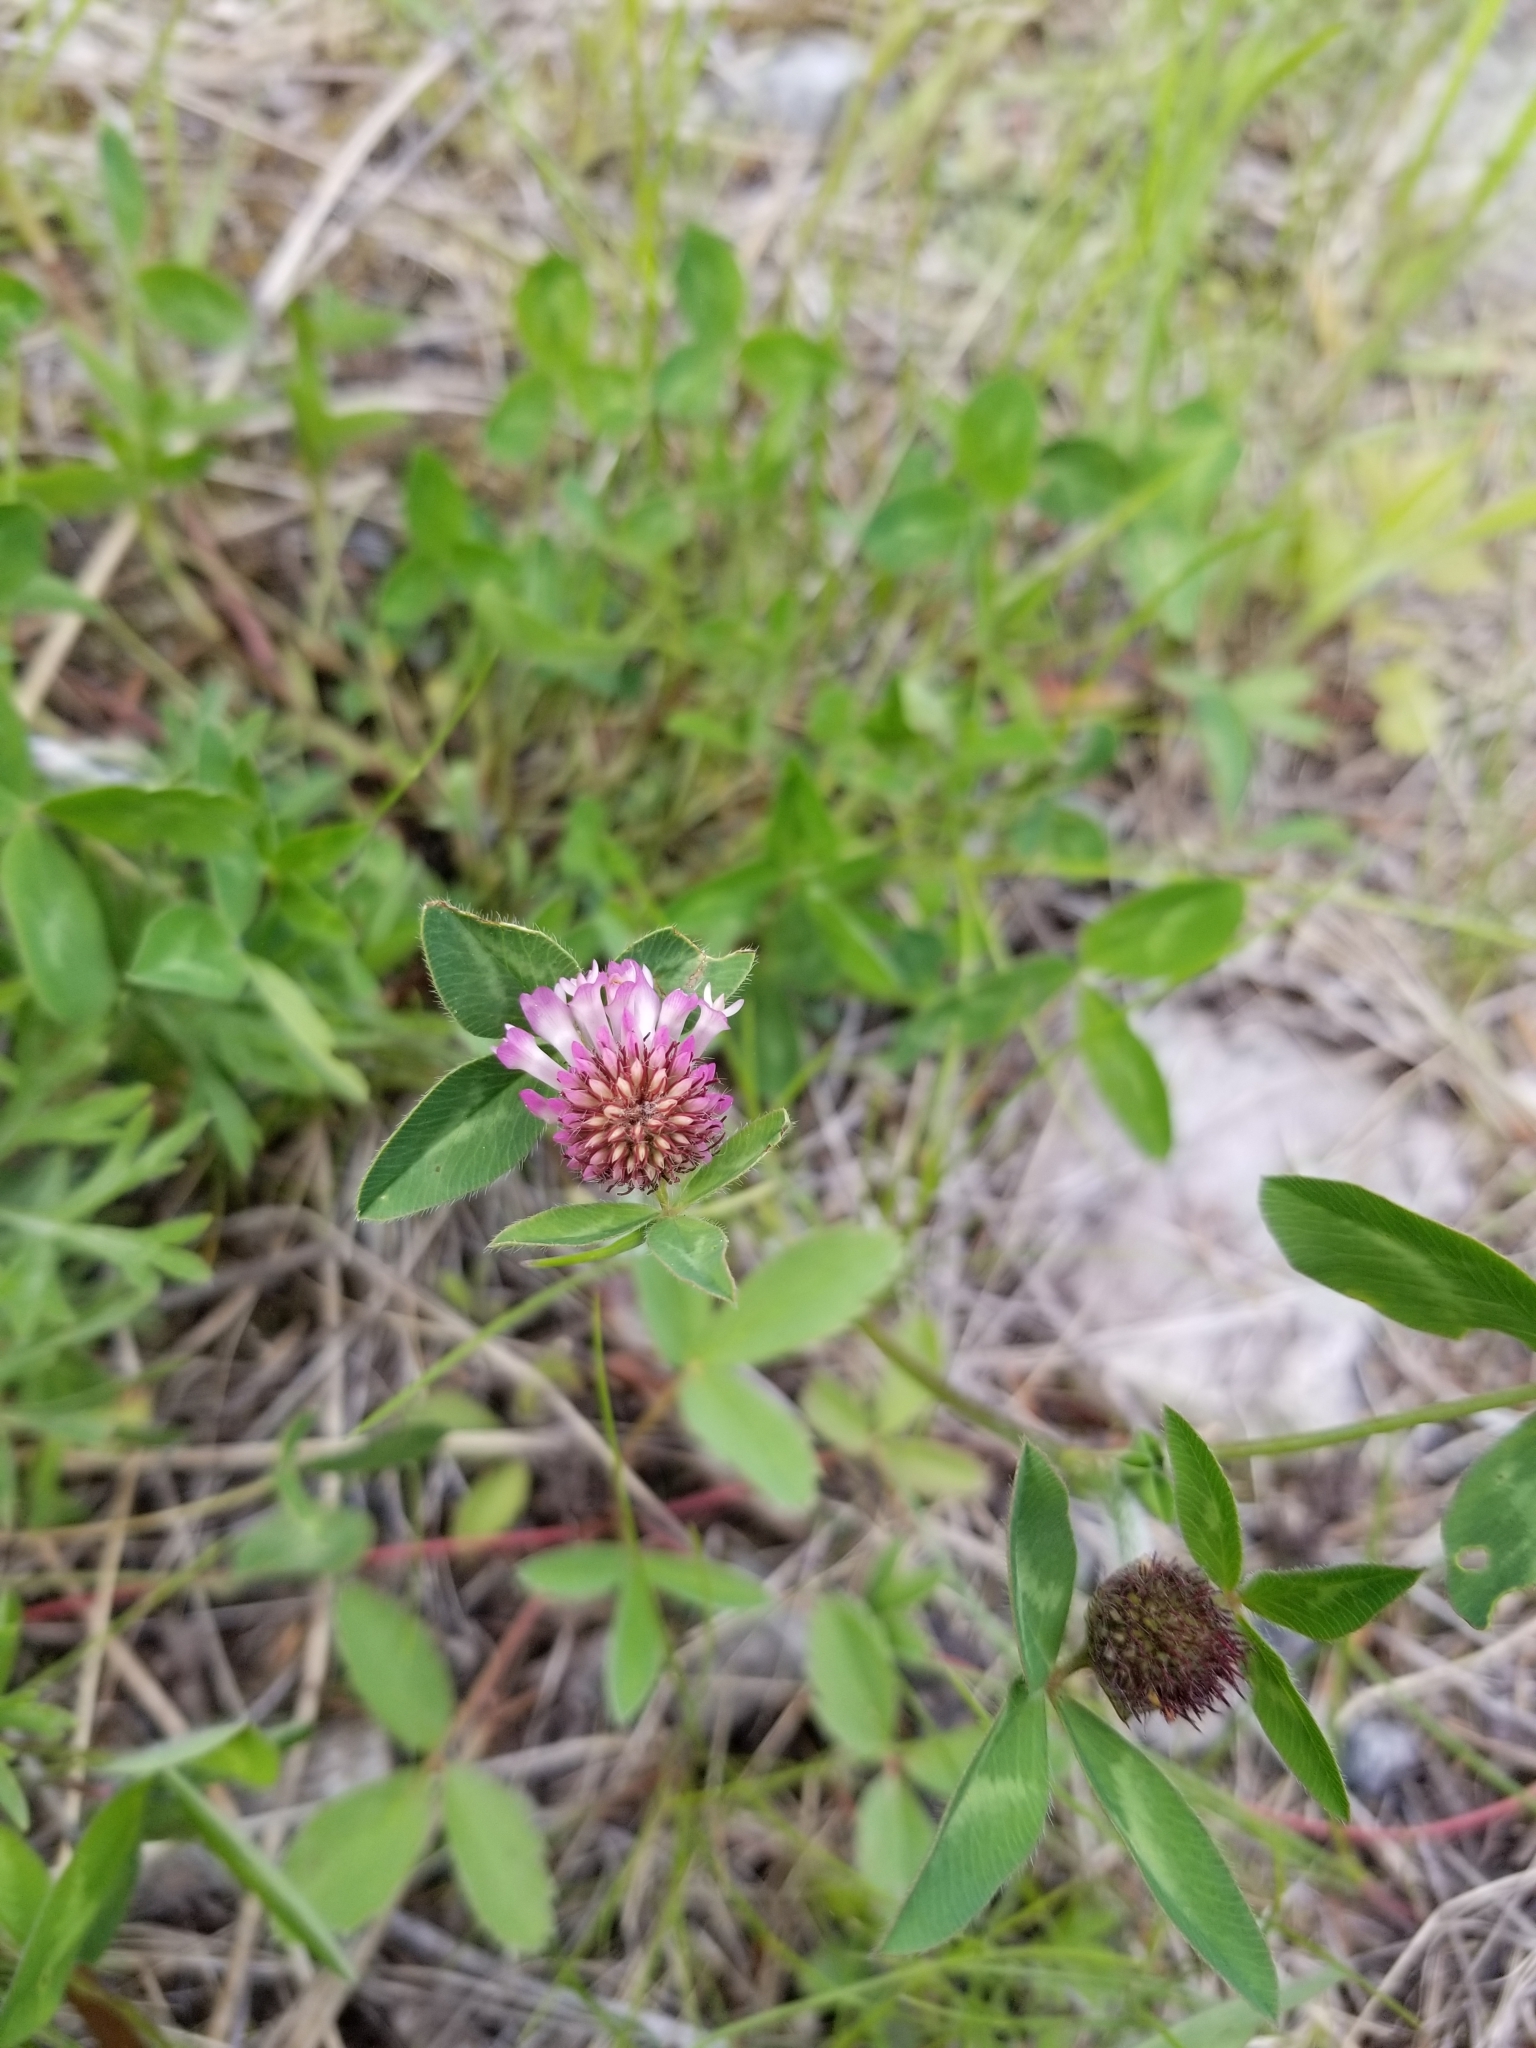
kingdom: Plantae
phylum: Tracheophyta
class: Magnoliopsida
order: Fabales
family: Fabaceae
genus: Trifolium
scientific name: Trifolium pratense
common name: Red clover
